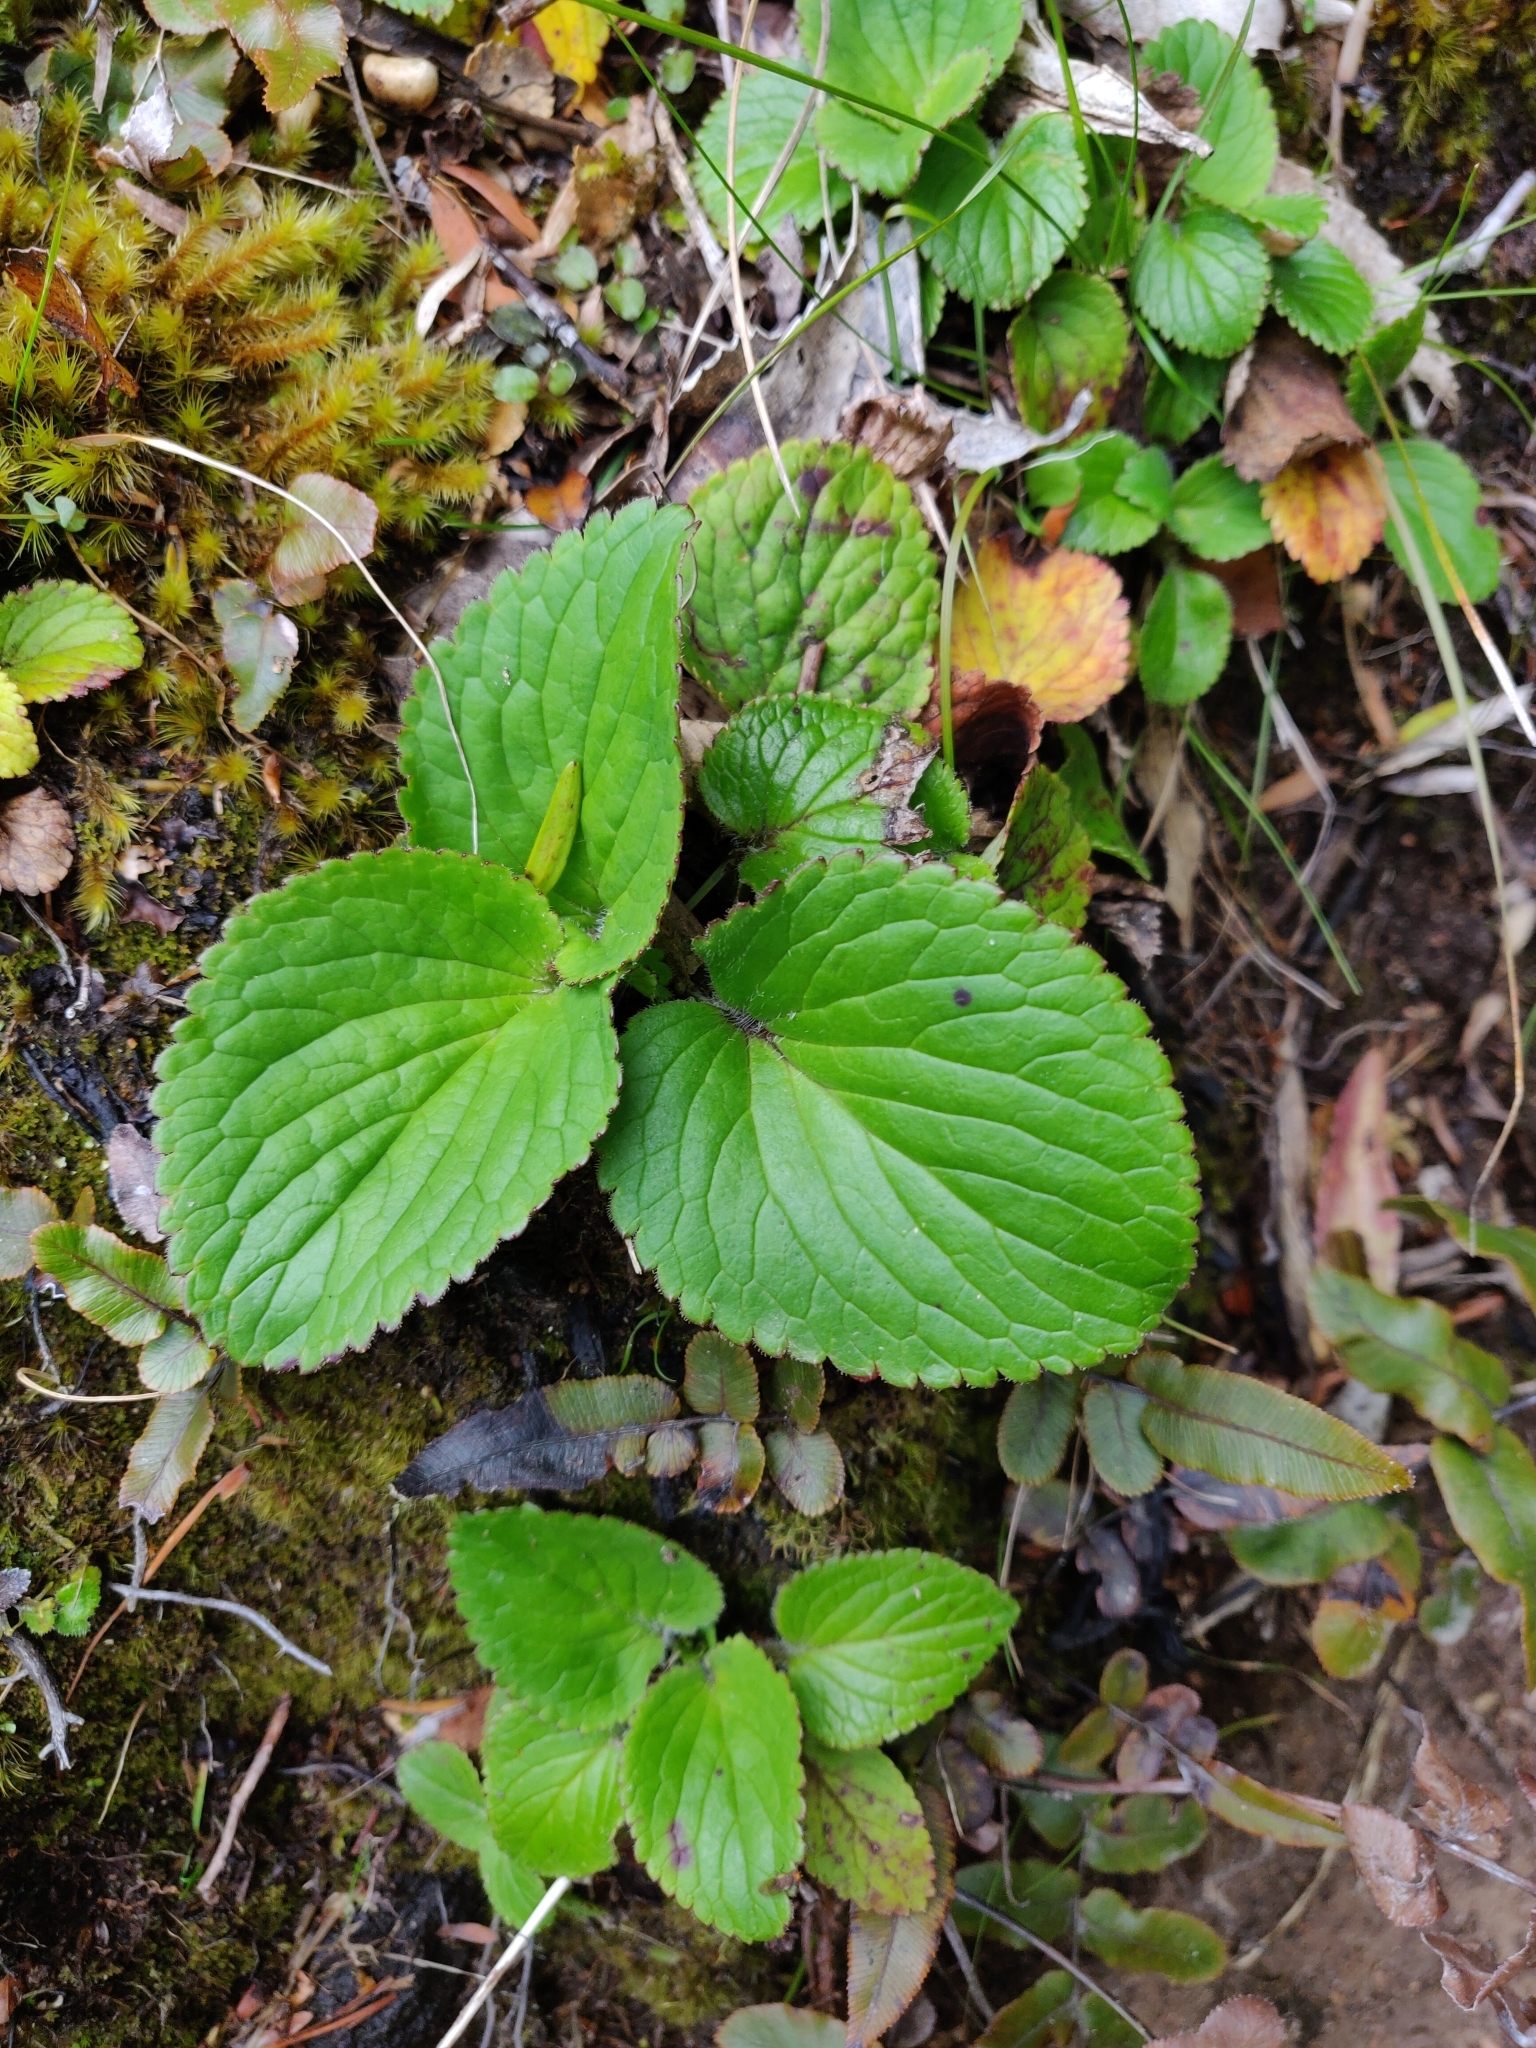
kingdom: Plantae
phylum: Tracheophyta
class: Magnoliopsida
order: Lamiales
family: Plantaginaceae
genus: Ourisia
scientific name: Ourisia macrophylla
